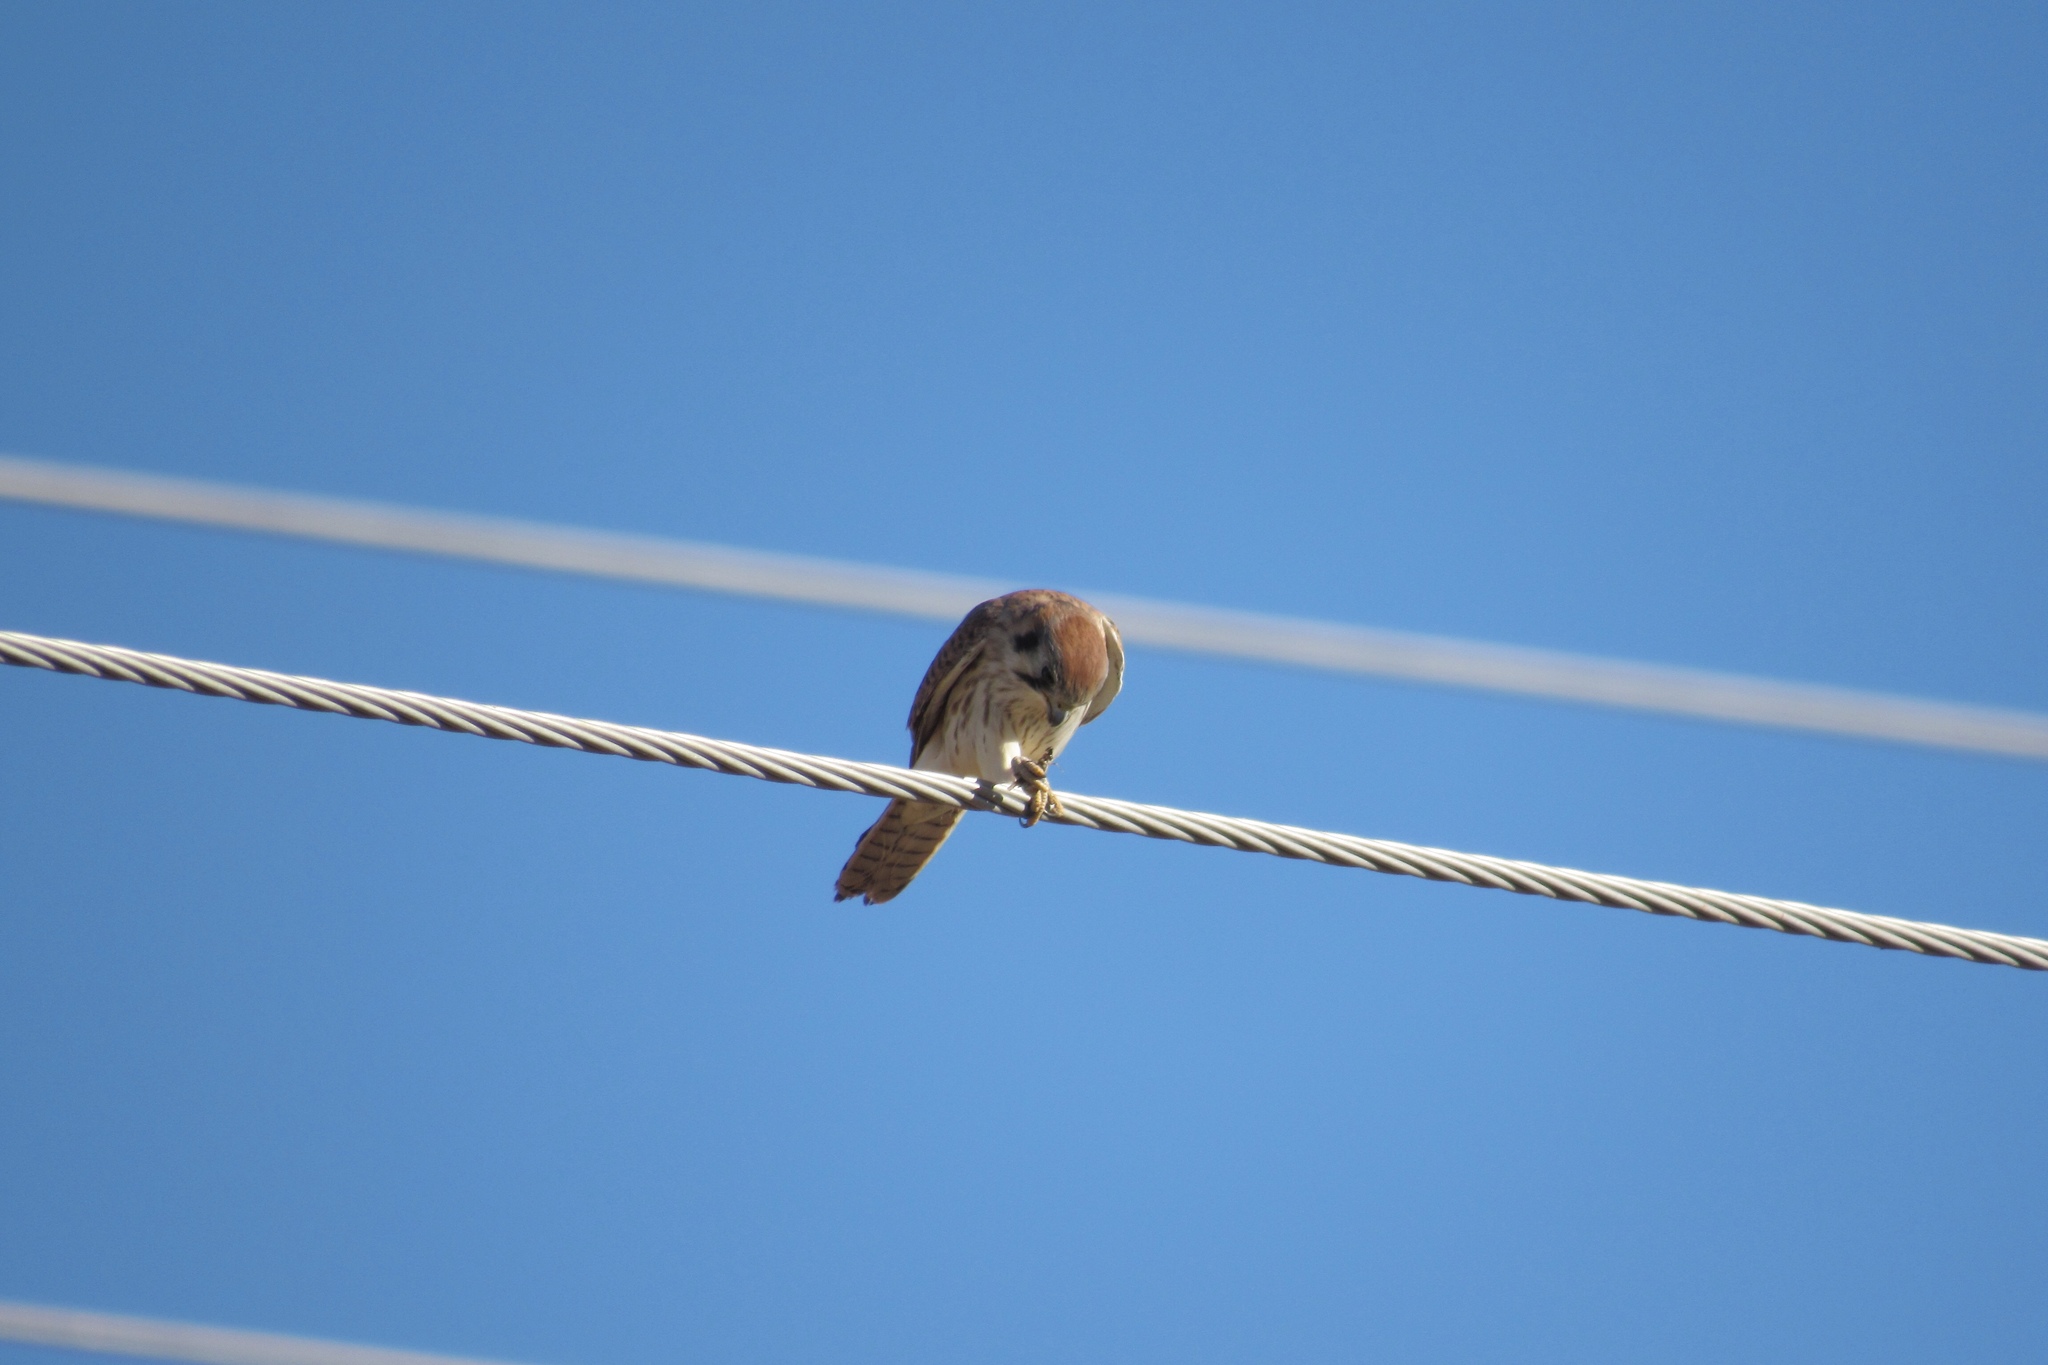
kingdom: Animalia
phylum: Chordata
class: Aves
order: Falconiformes
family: Falconidae
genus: Falco
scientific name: Falco sparverius
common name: American kestrel
